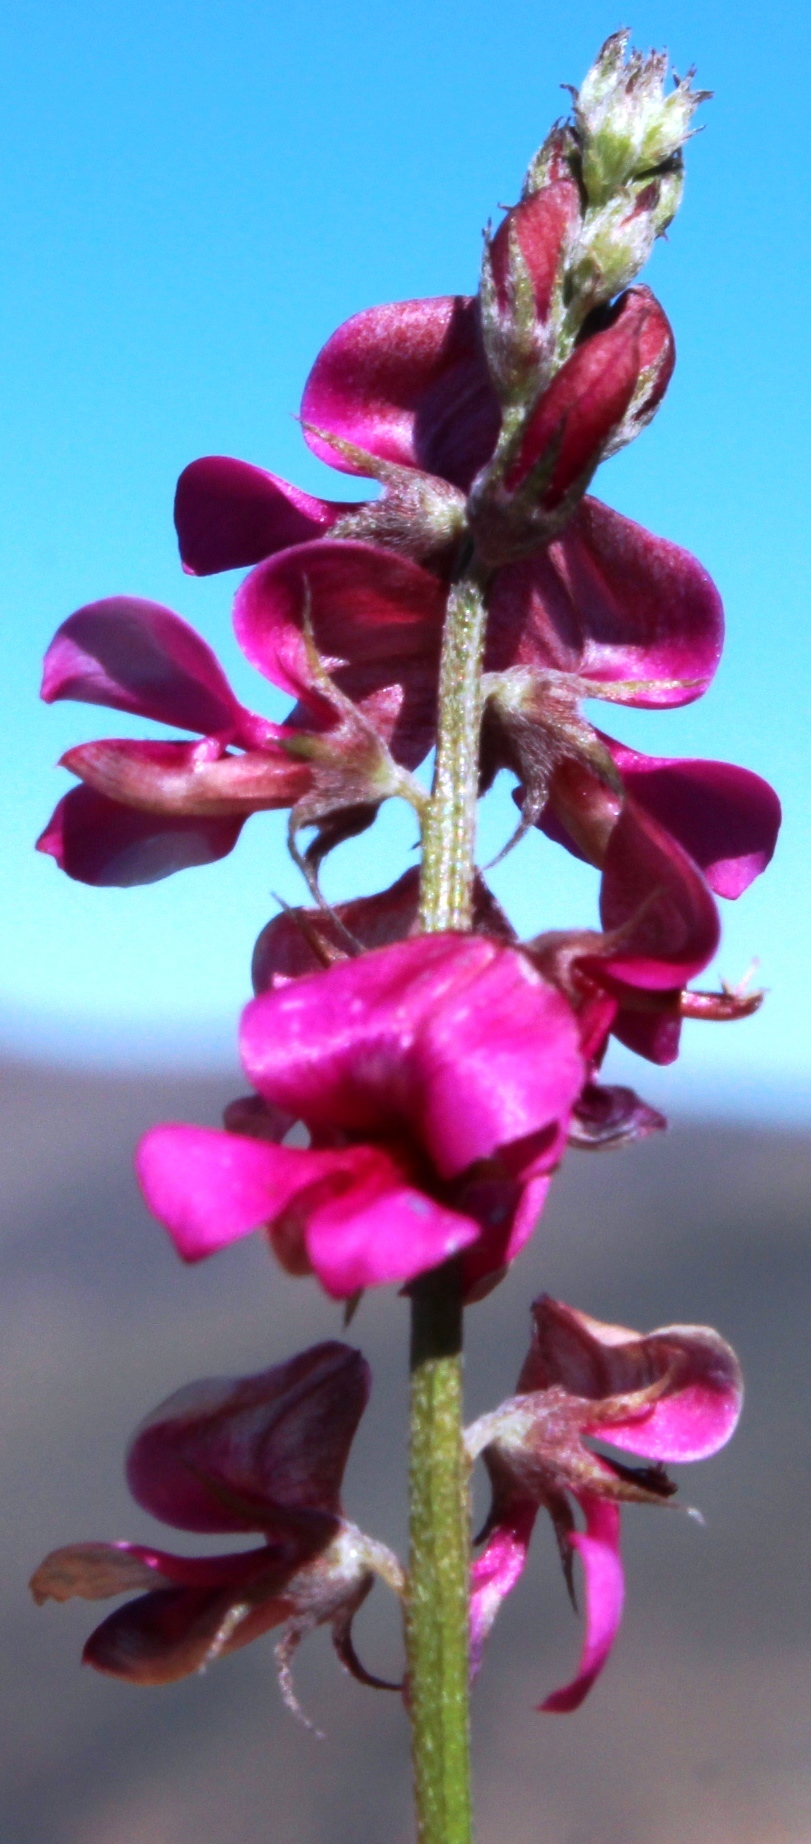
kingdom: Plantae
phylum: Tracheophyta
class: Magnoliopsida
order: Fabales
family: Fabaceae
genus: Indigofera
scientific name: Indigofera
